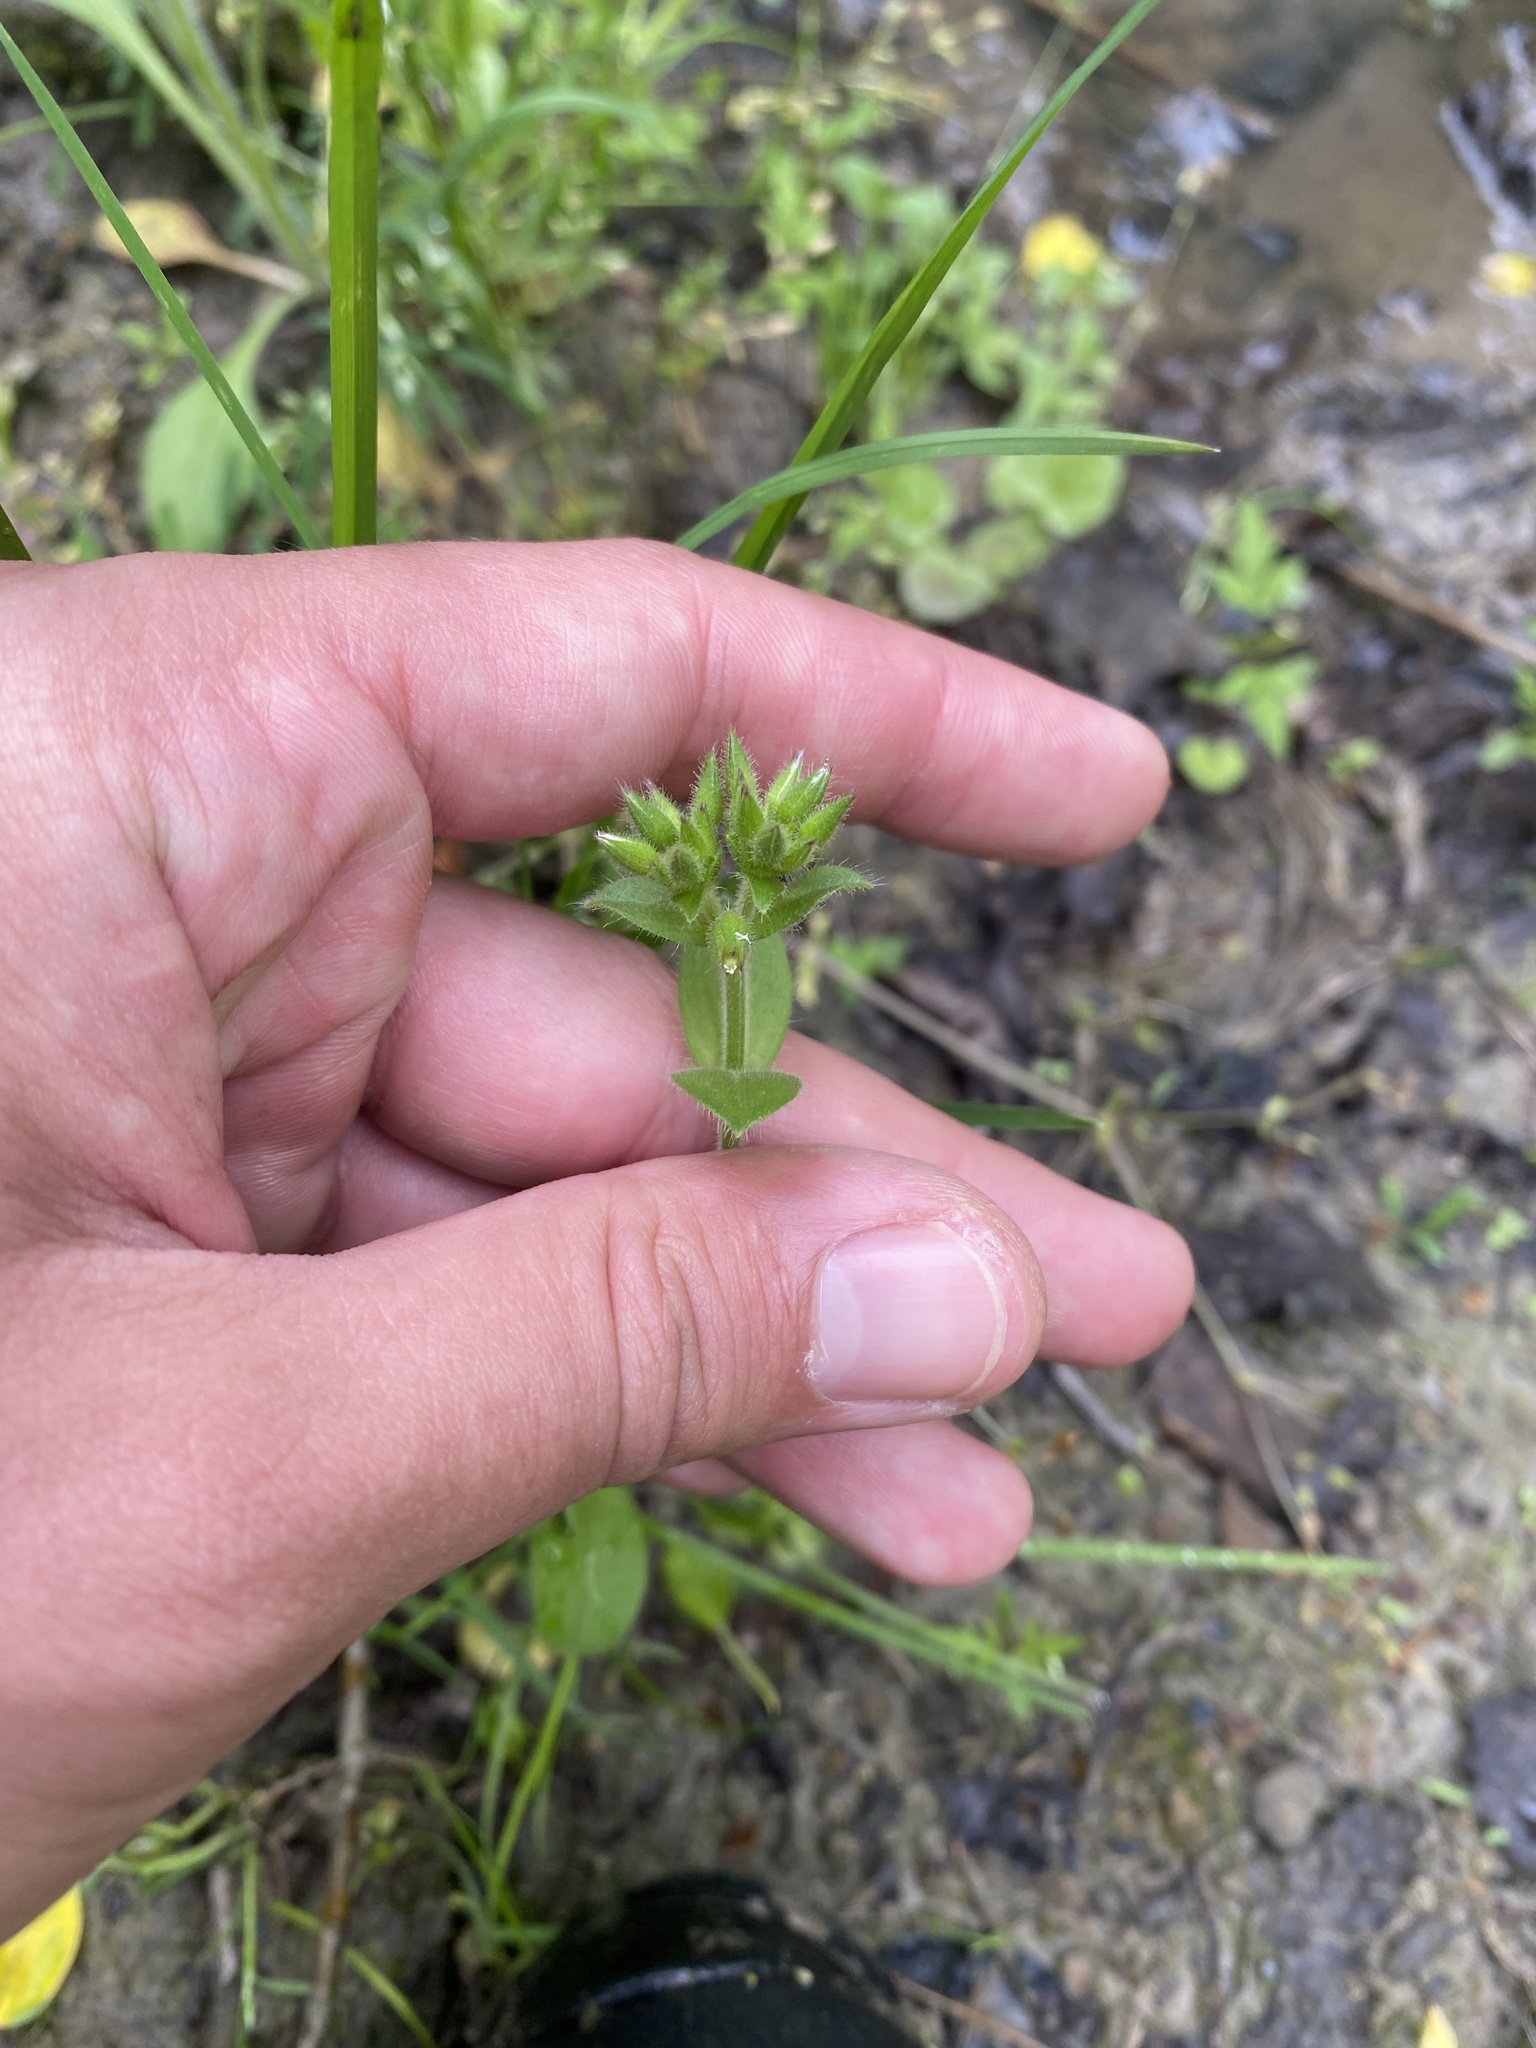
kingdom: Plantae
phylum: Tracheophyta
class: Magnoliopsida
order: Caryophyllales
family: Caryophyllaceae
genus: Cerastium
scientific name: Cerastium glomeratum
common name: Sticky chickweed
